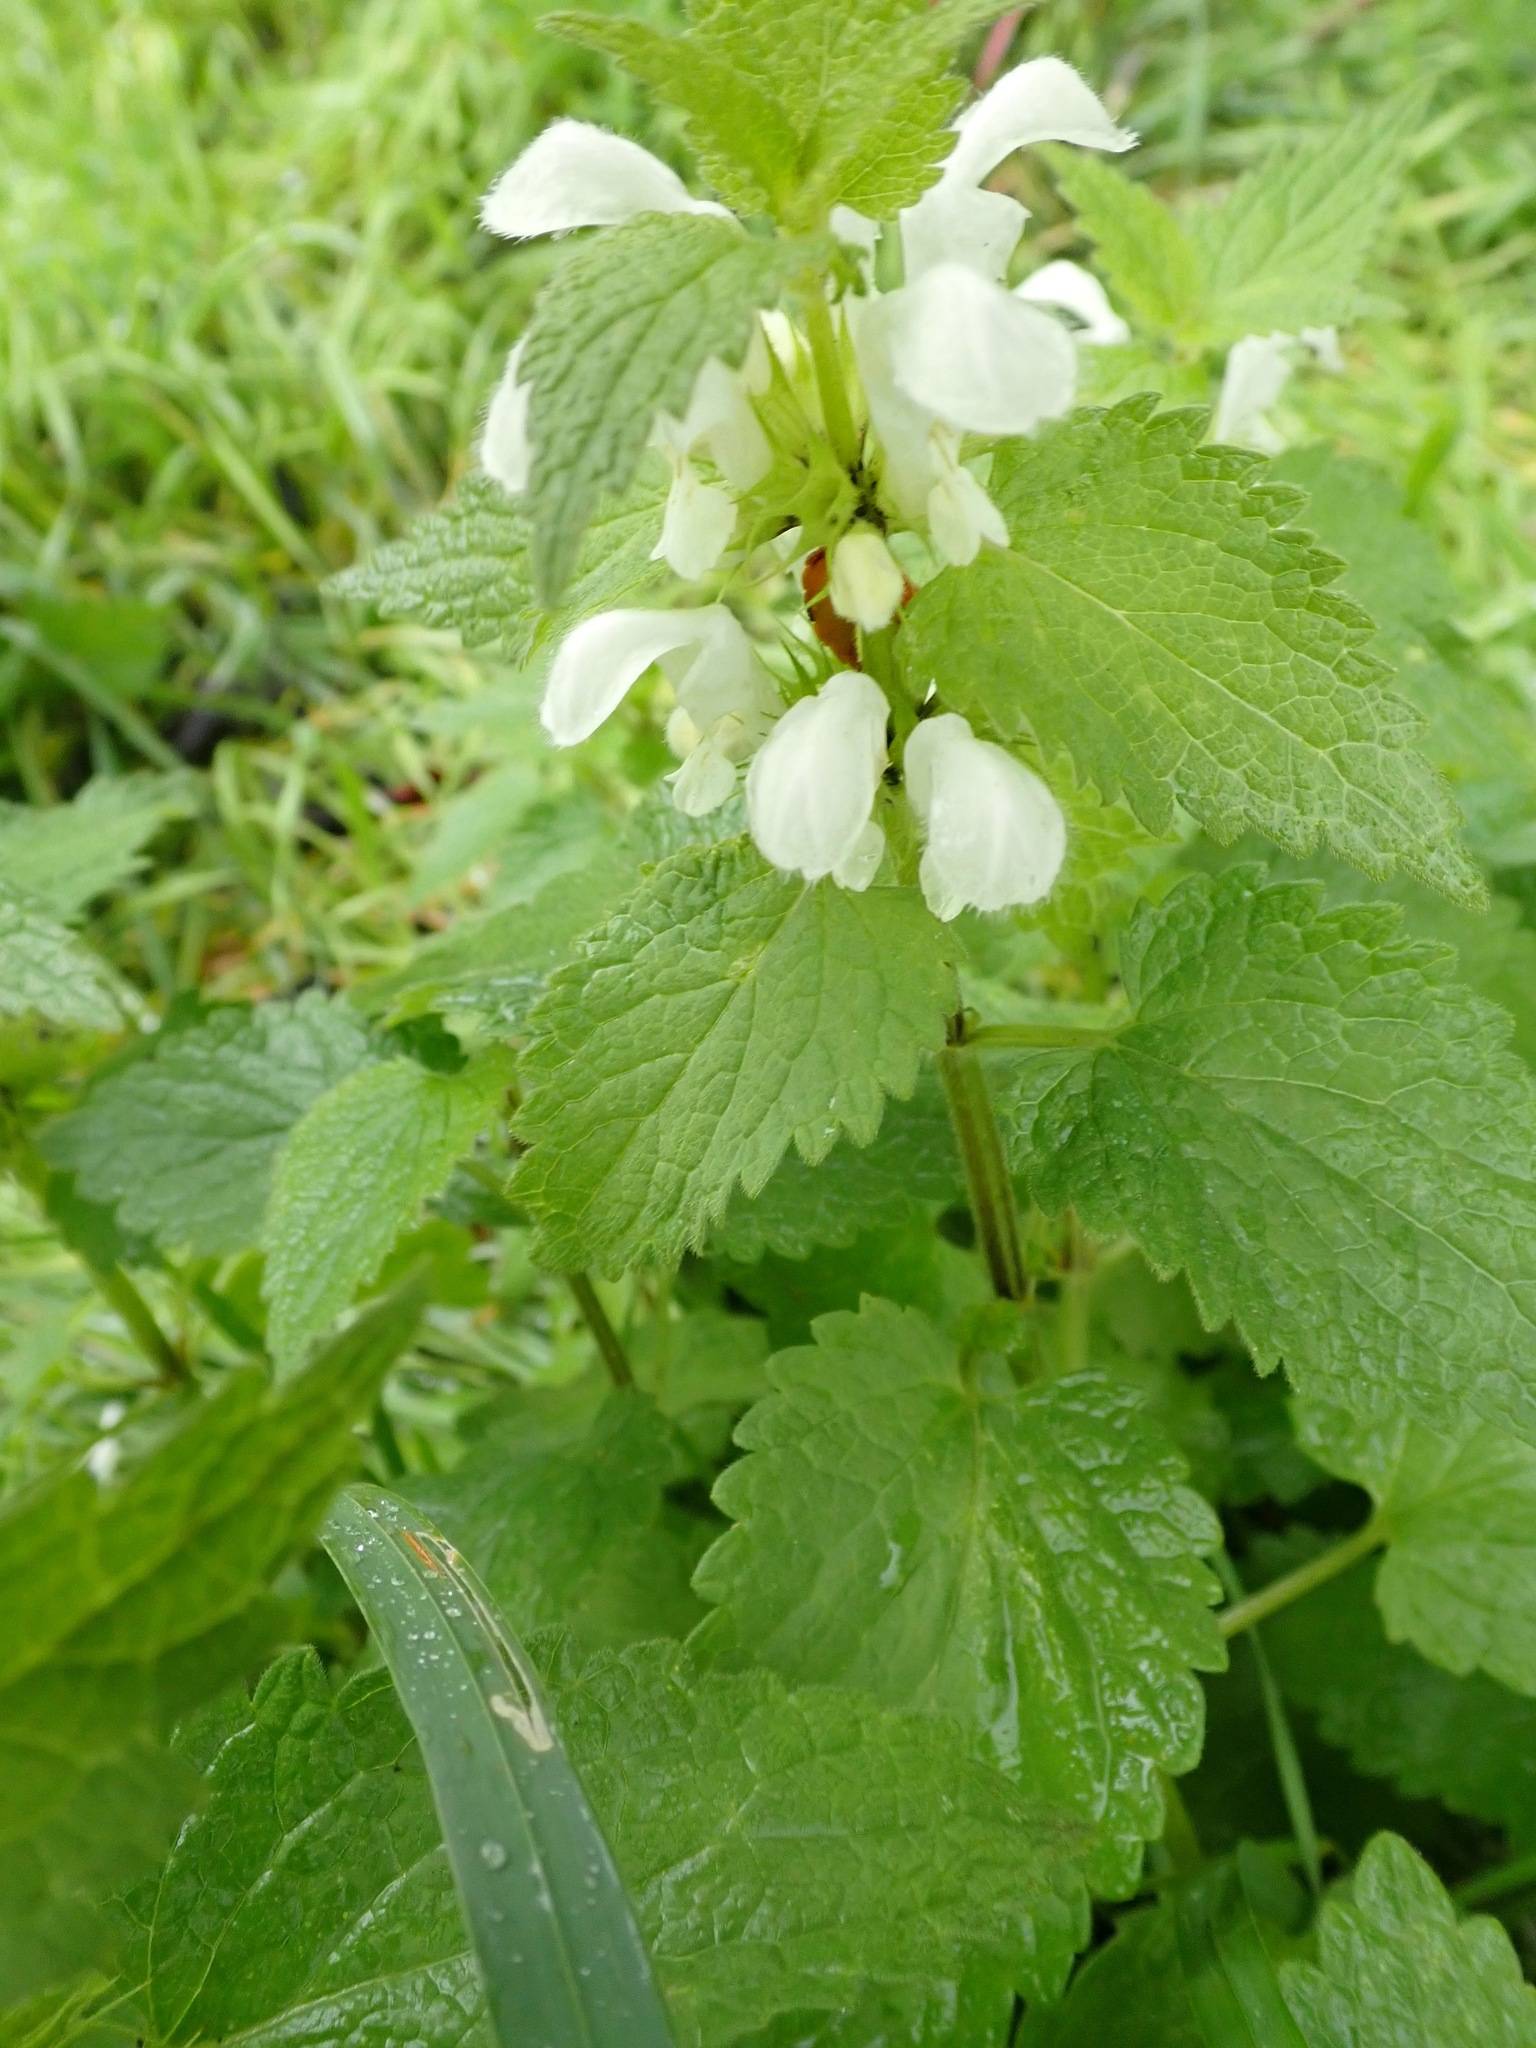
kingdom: Plantae
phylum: Tracheophyta
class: Magnoliopsida
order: Lamiales
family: Lamiaceae
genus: Lamium
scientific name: Lamium album
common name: White dead-nettle
